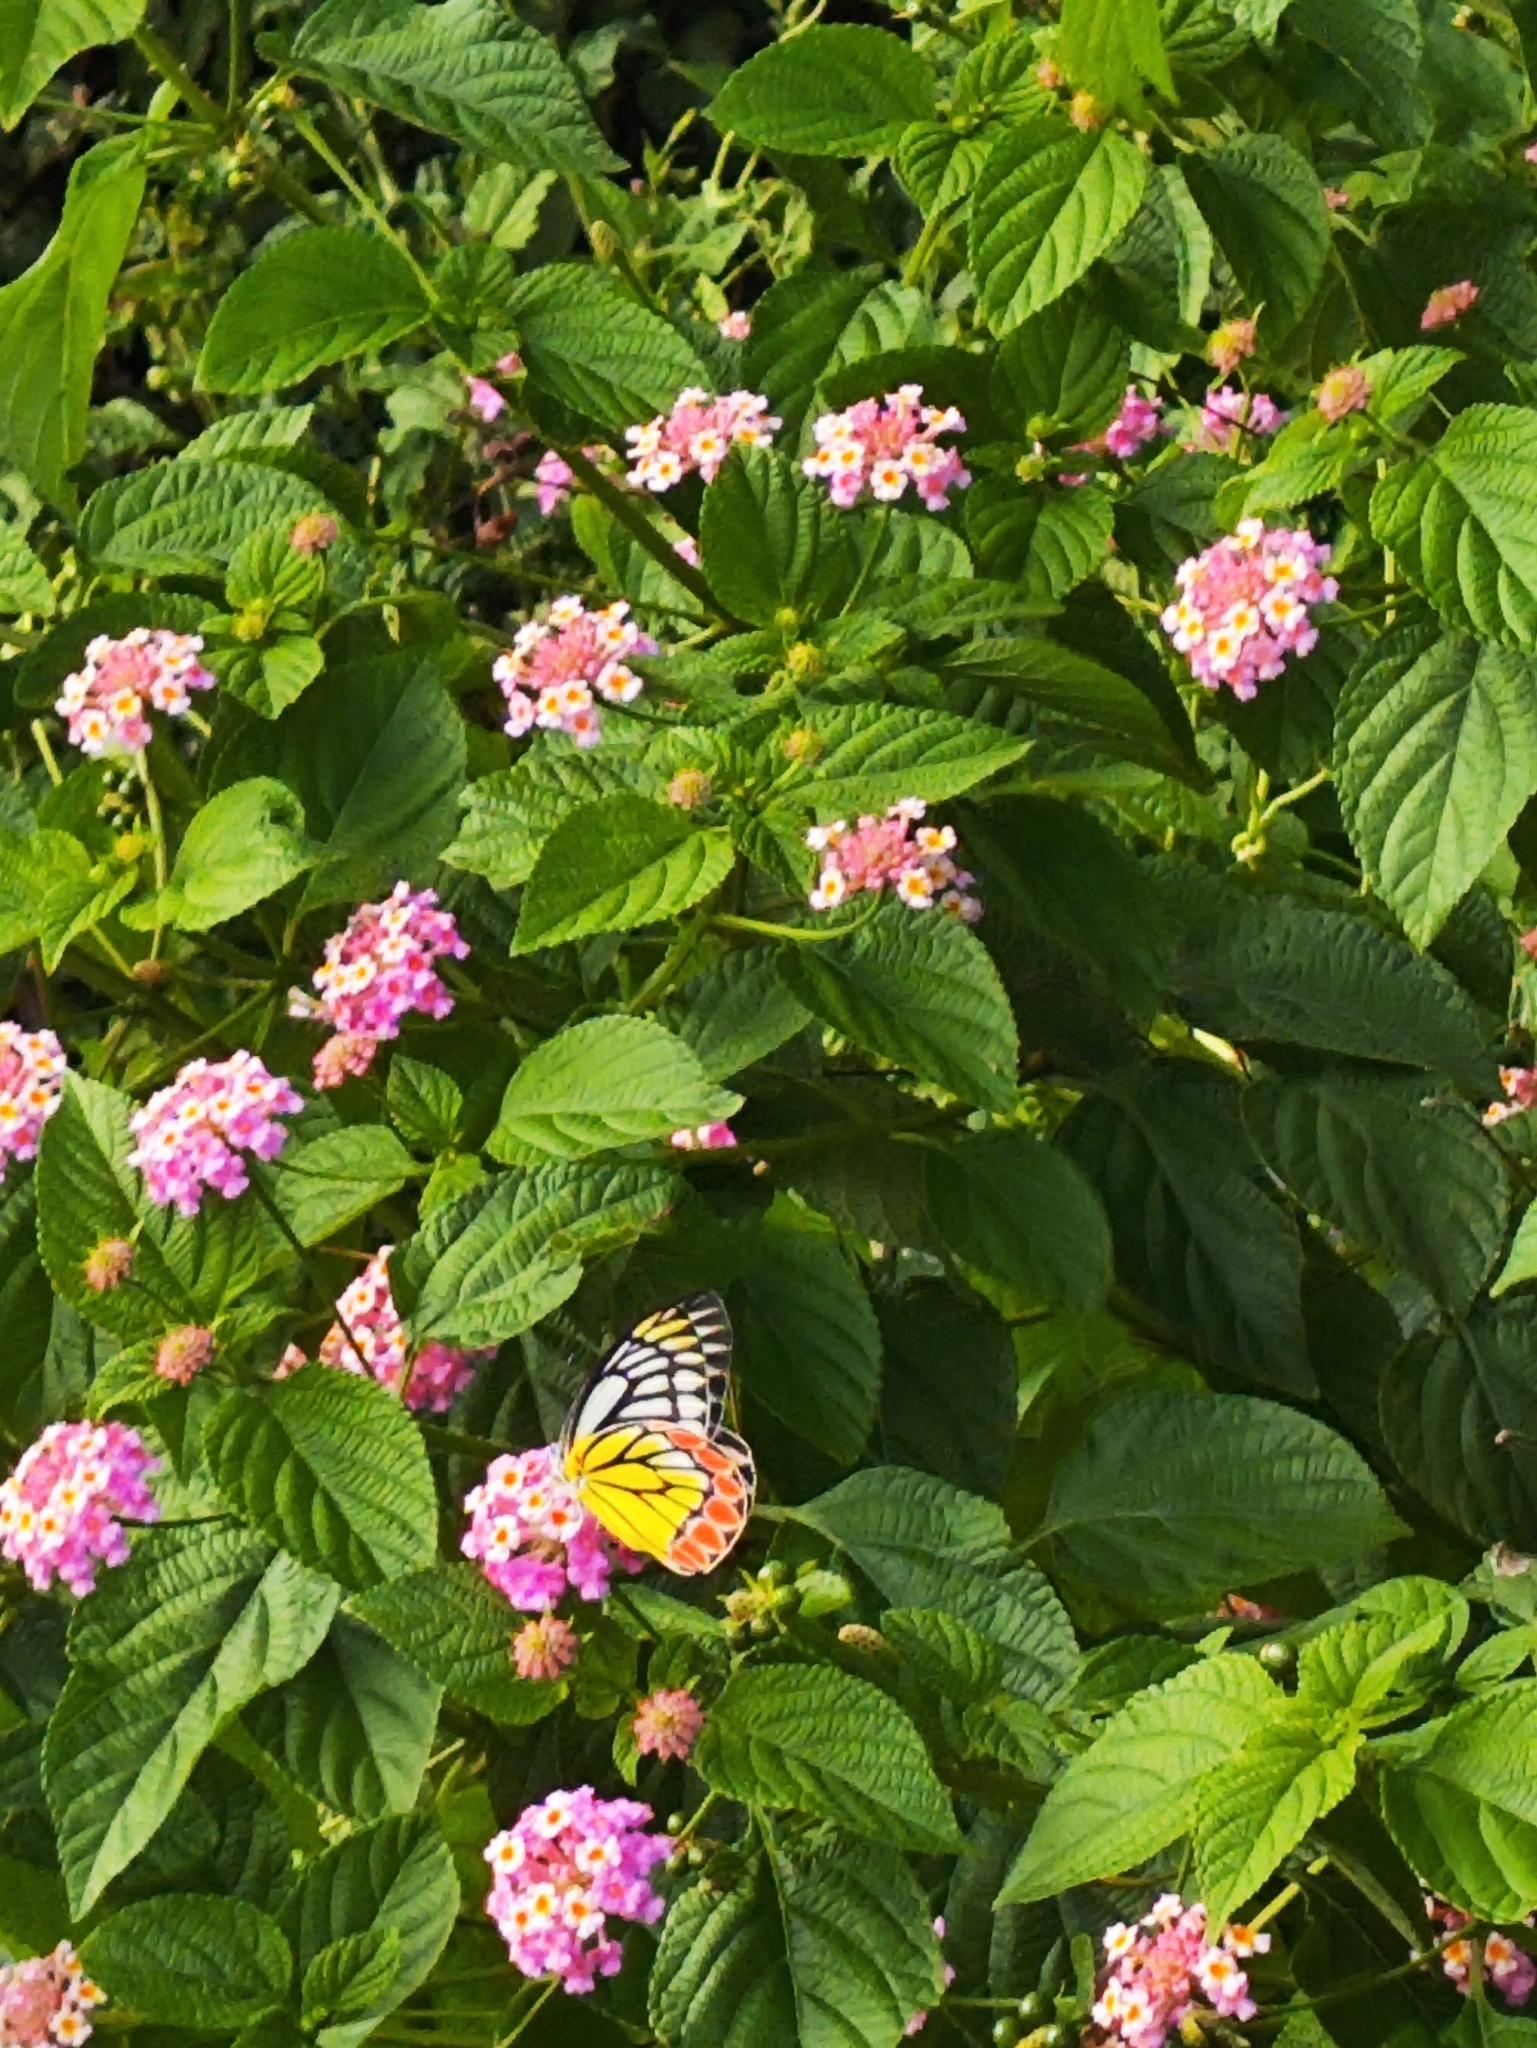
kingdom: Animalia
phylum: Arthropoda
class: Insecta
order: Lepidoptera
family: Pieridae
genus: Delias
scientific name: Delias eucharis
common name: Common jezebel
